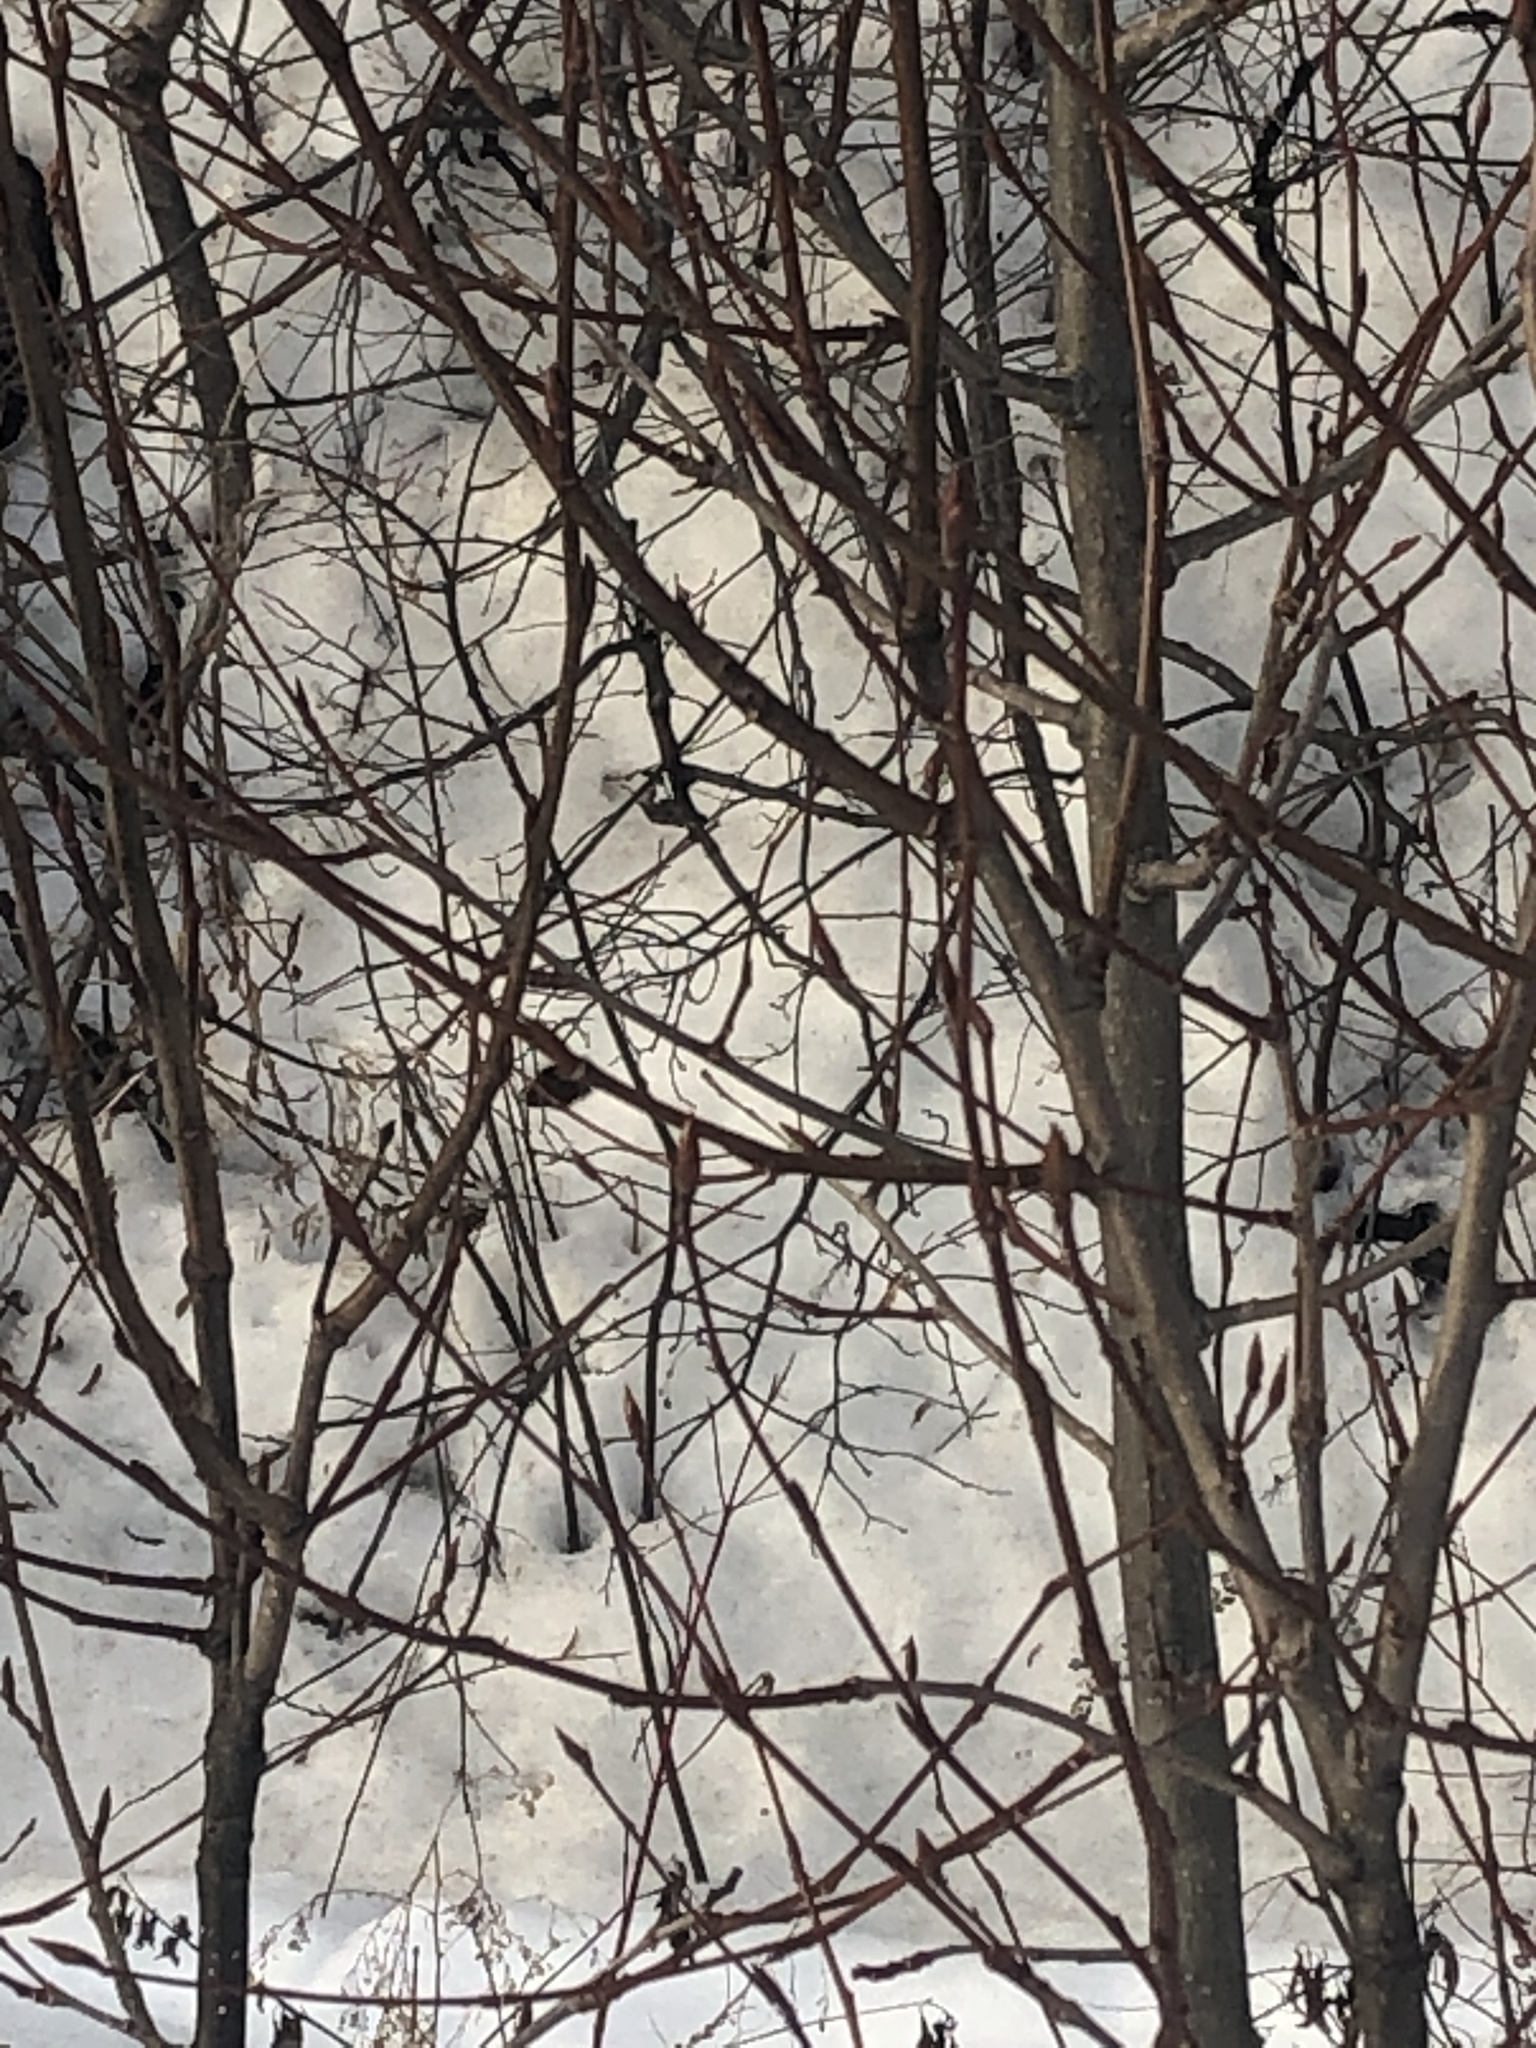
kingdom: Plantae
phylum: Tracheophyta
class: Magnoliopsida
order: Sapindales
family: Sapindaceae
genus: Acer
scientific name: Acer negundo
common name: Ashleaf maple
